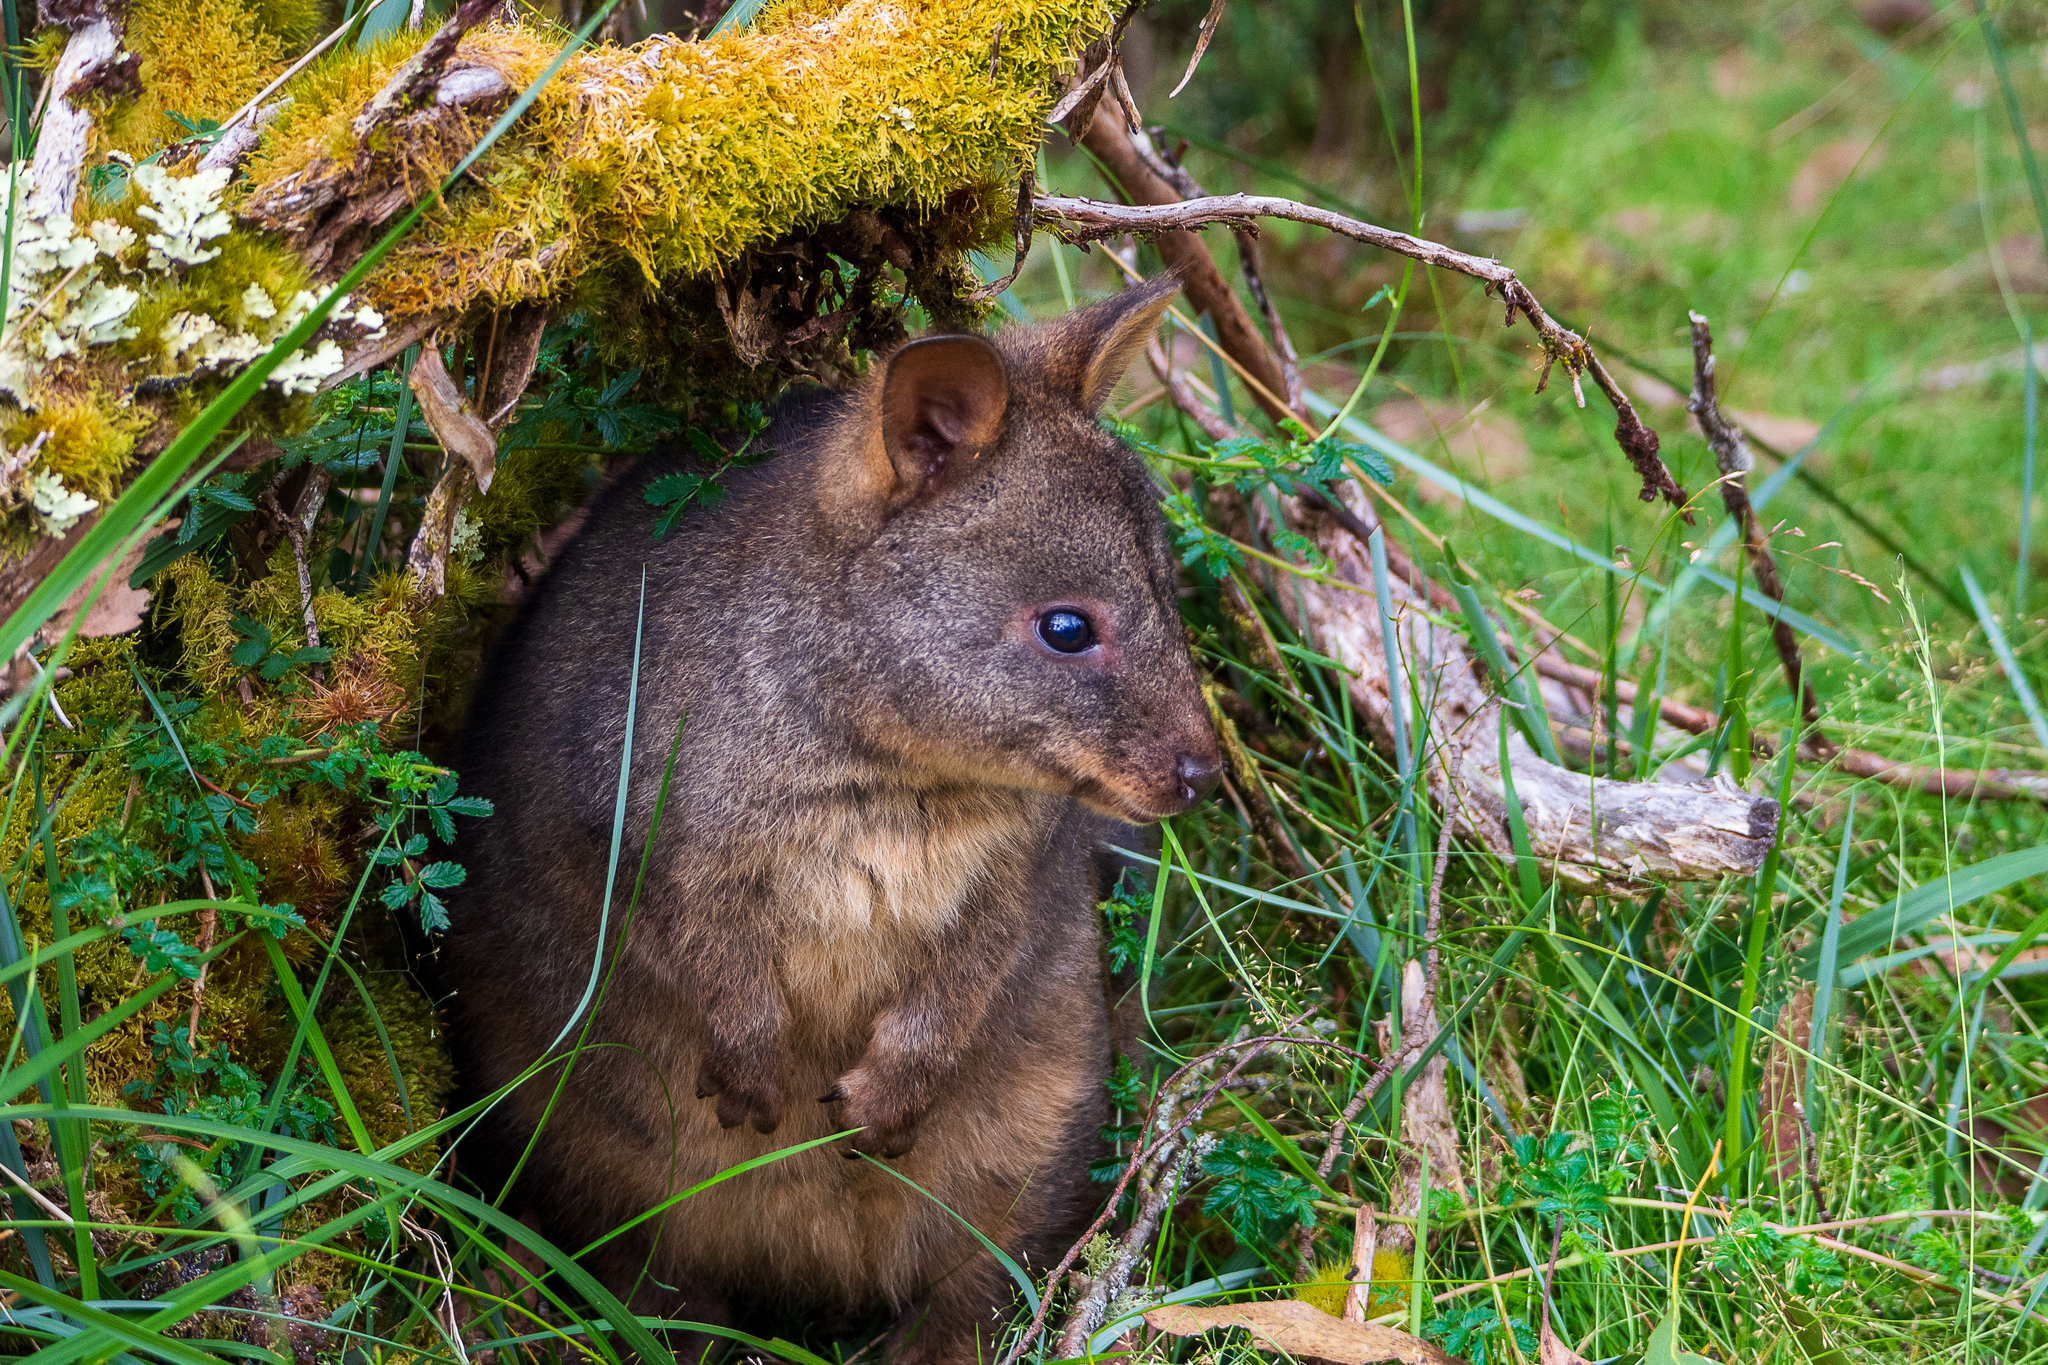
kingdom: Animalia
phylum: Chordata
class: Mammalia
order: Diprotodontia
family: Macropodidae
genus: Thylogale
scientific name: Thylogale billardierii
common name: Tasmanian pademelon
